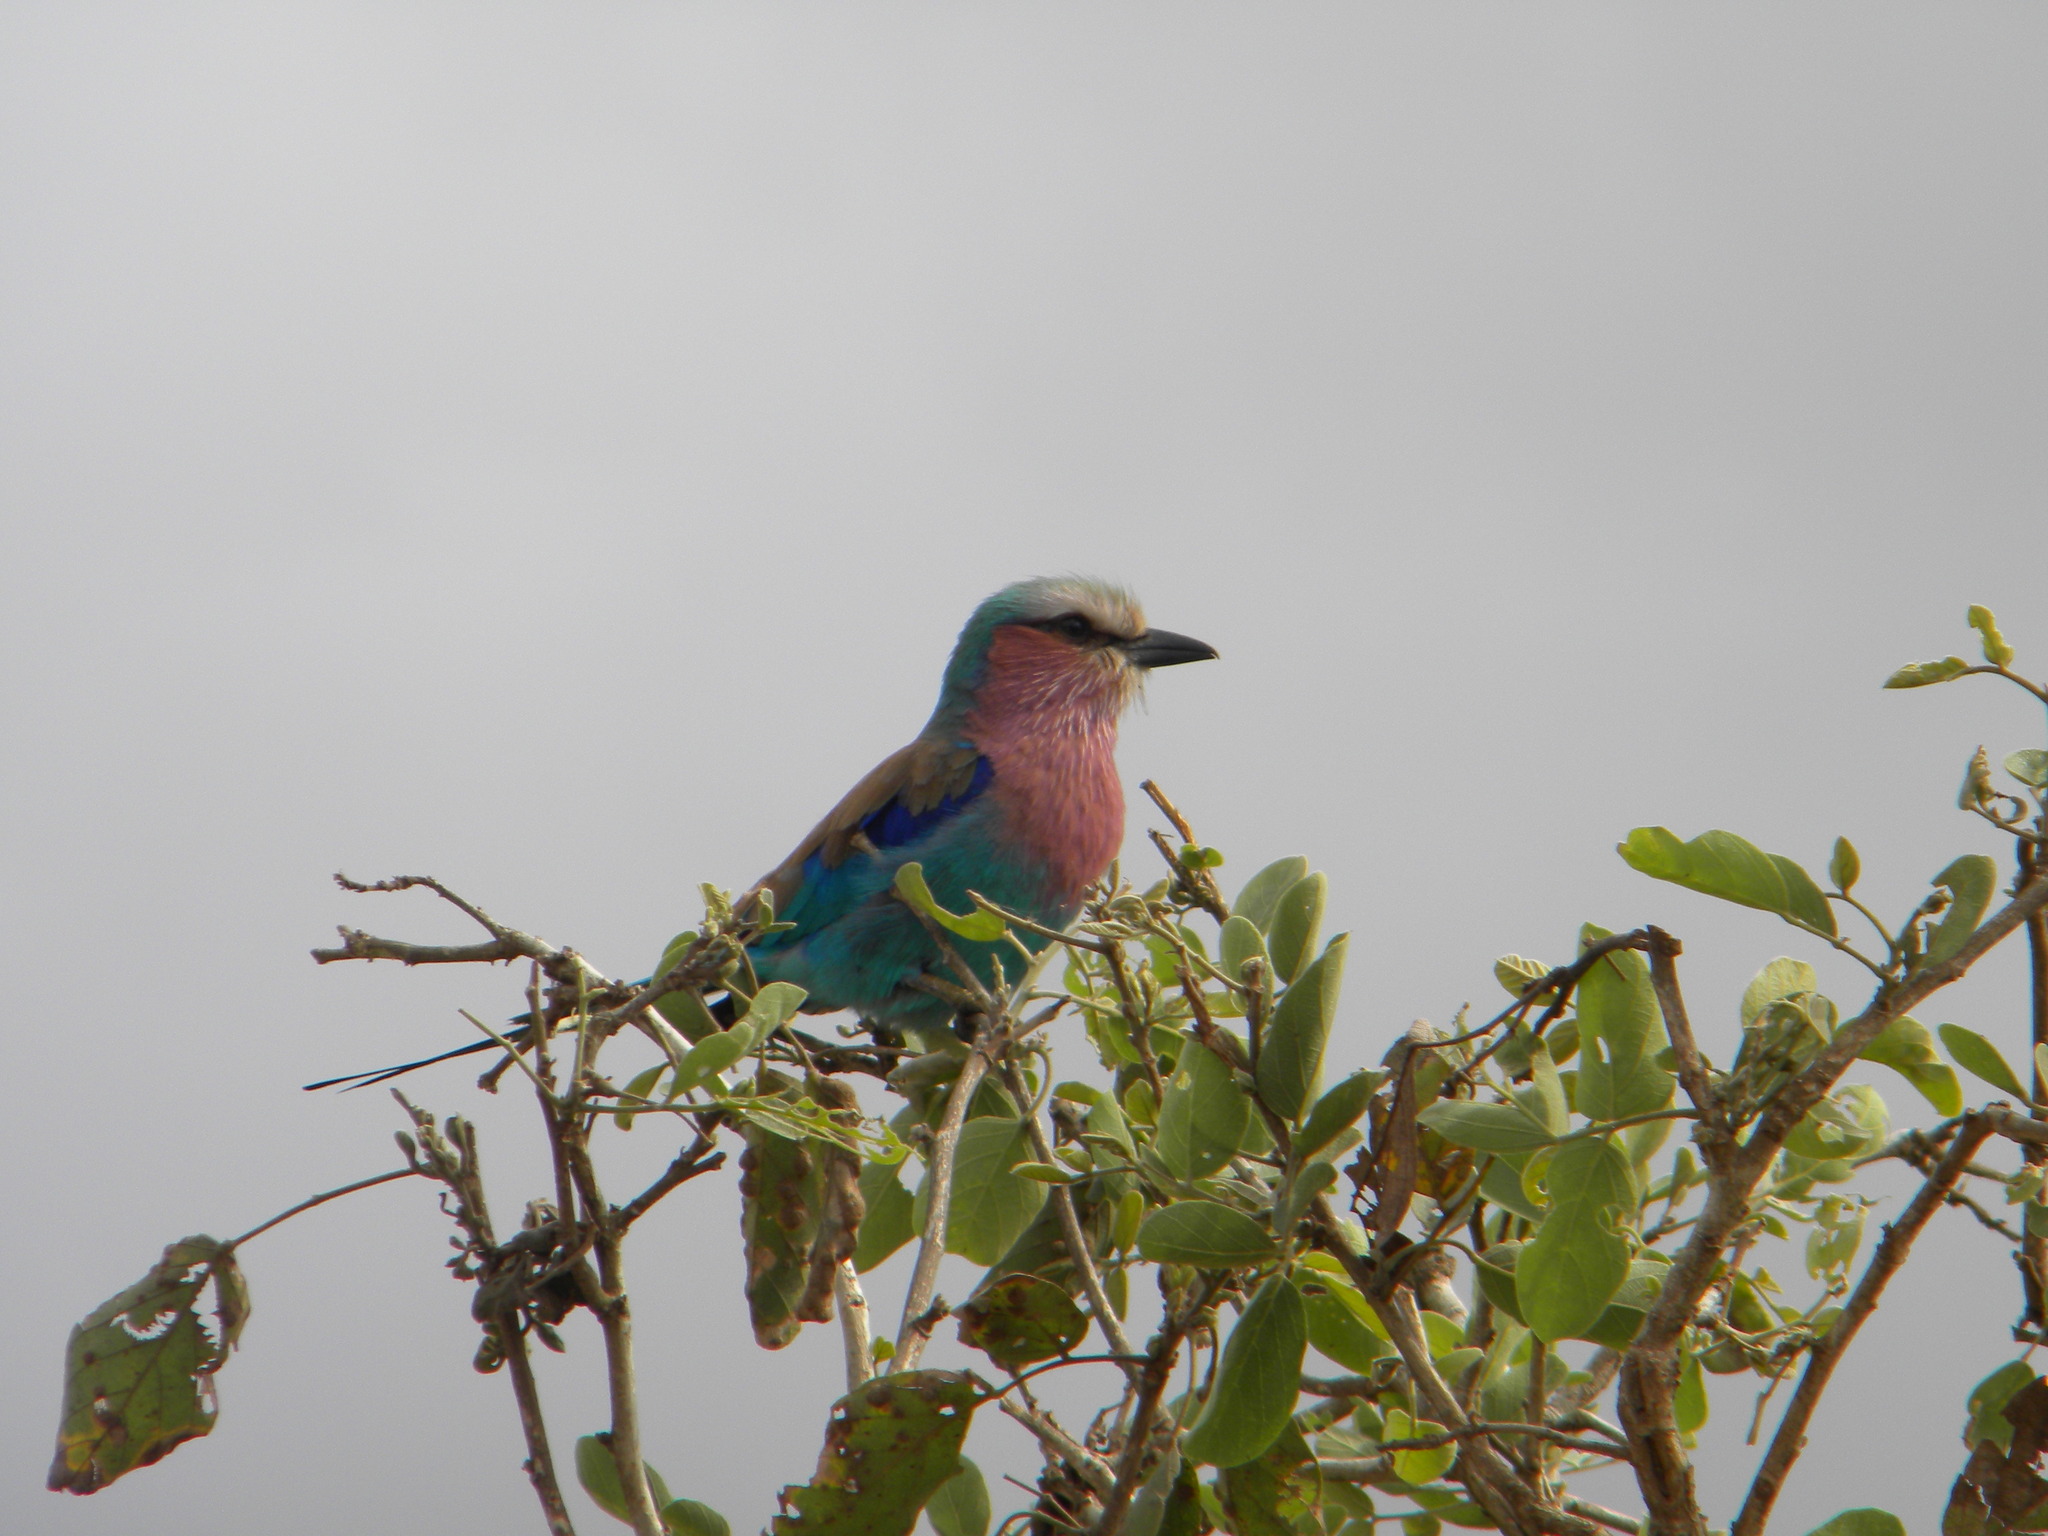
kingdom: Animalia
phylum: Chordata
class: Aves
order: Coraciiformes
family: Coraciidae
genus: Coracias
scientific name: Coracias caudatus
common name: Lilac-breasted roller
